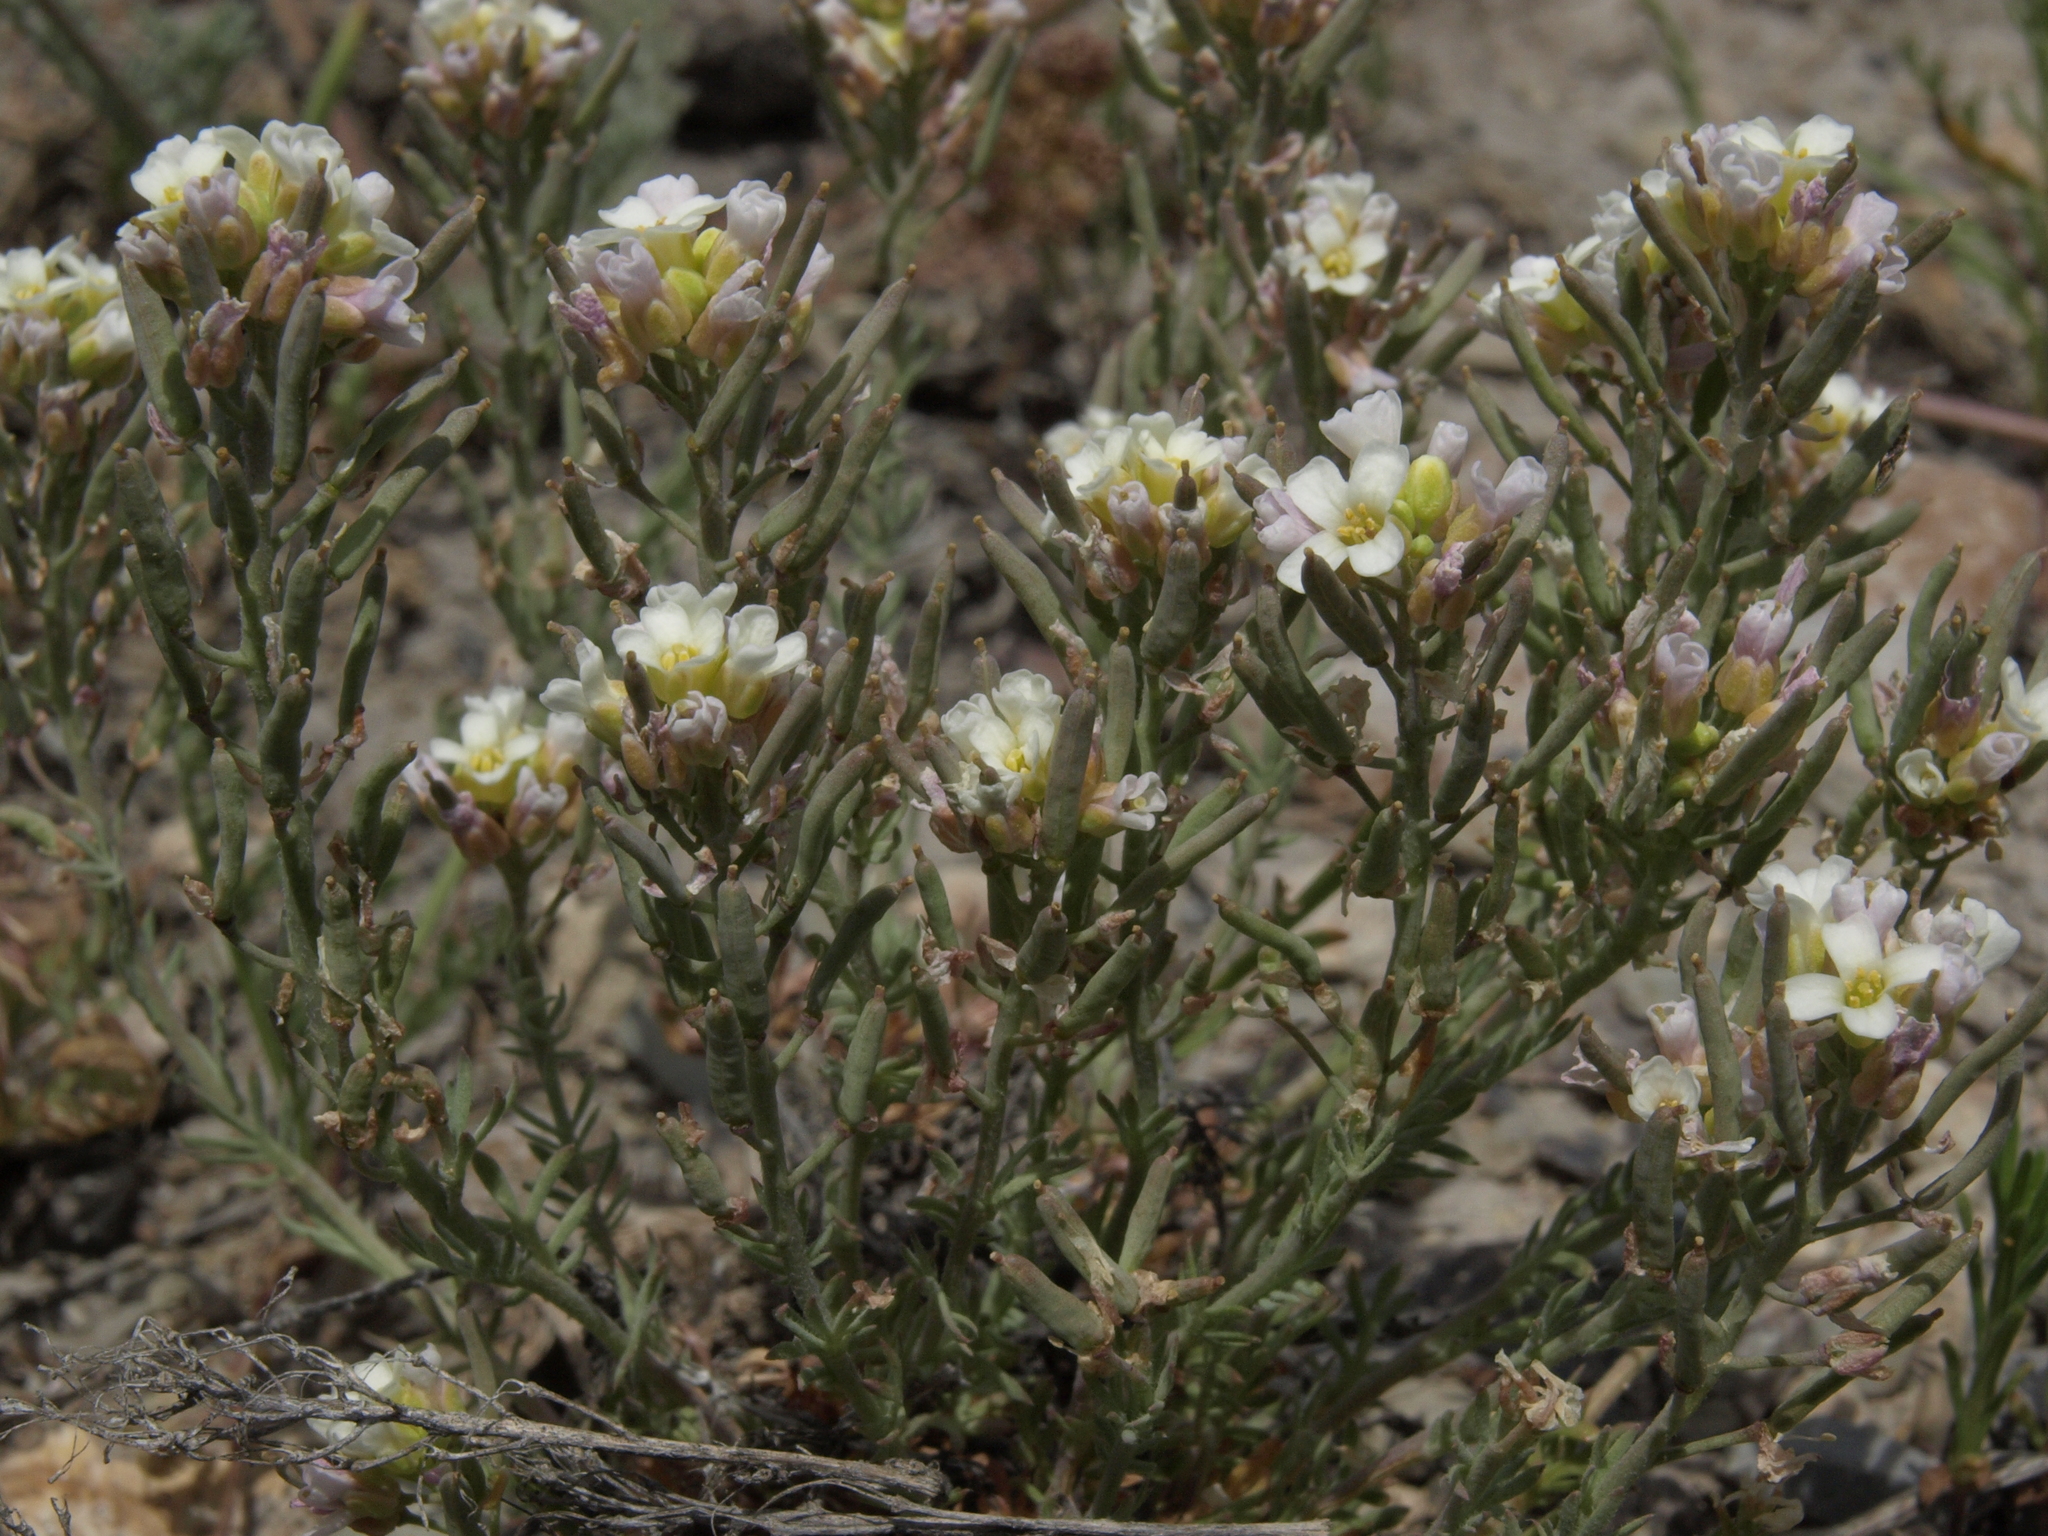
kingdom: Plantae
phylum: Tracheophyta
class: Magnoliopsida
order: Brassicales
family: Brassicaceae
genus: Polyctenium
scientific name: Polyctenium fremontii
